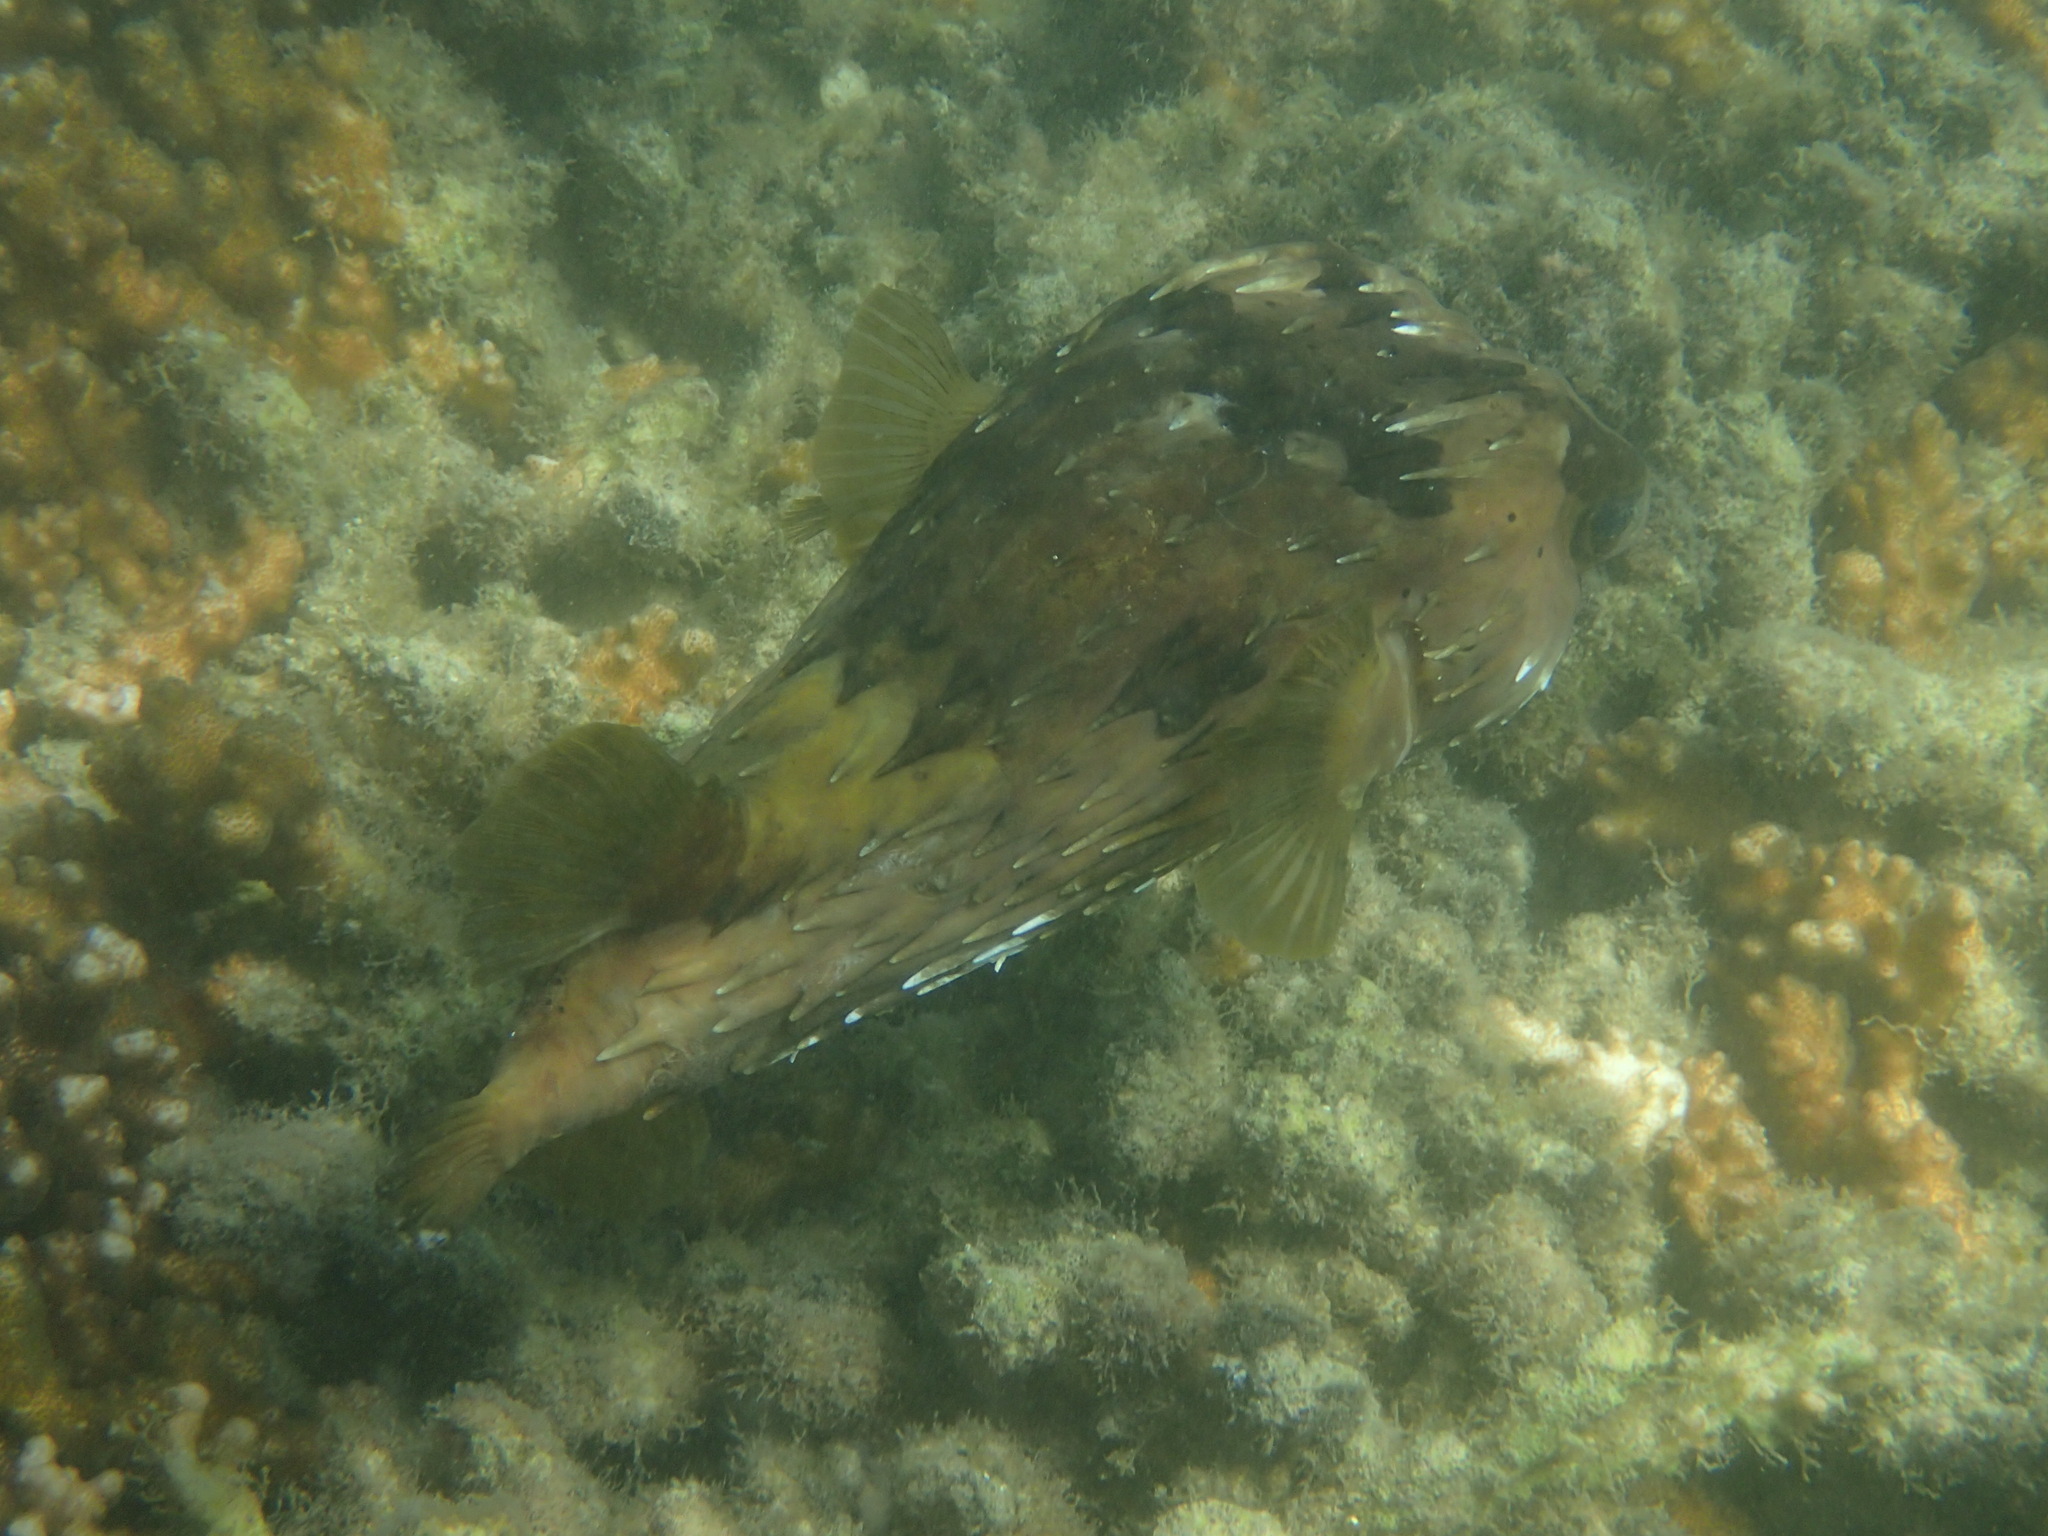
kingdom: Animalia
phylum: Chordata
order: Tetraodontiformes
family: Diodontidae
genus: Diodon
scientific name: Diodon holocanthus
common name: Balloonfish
